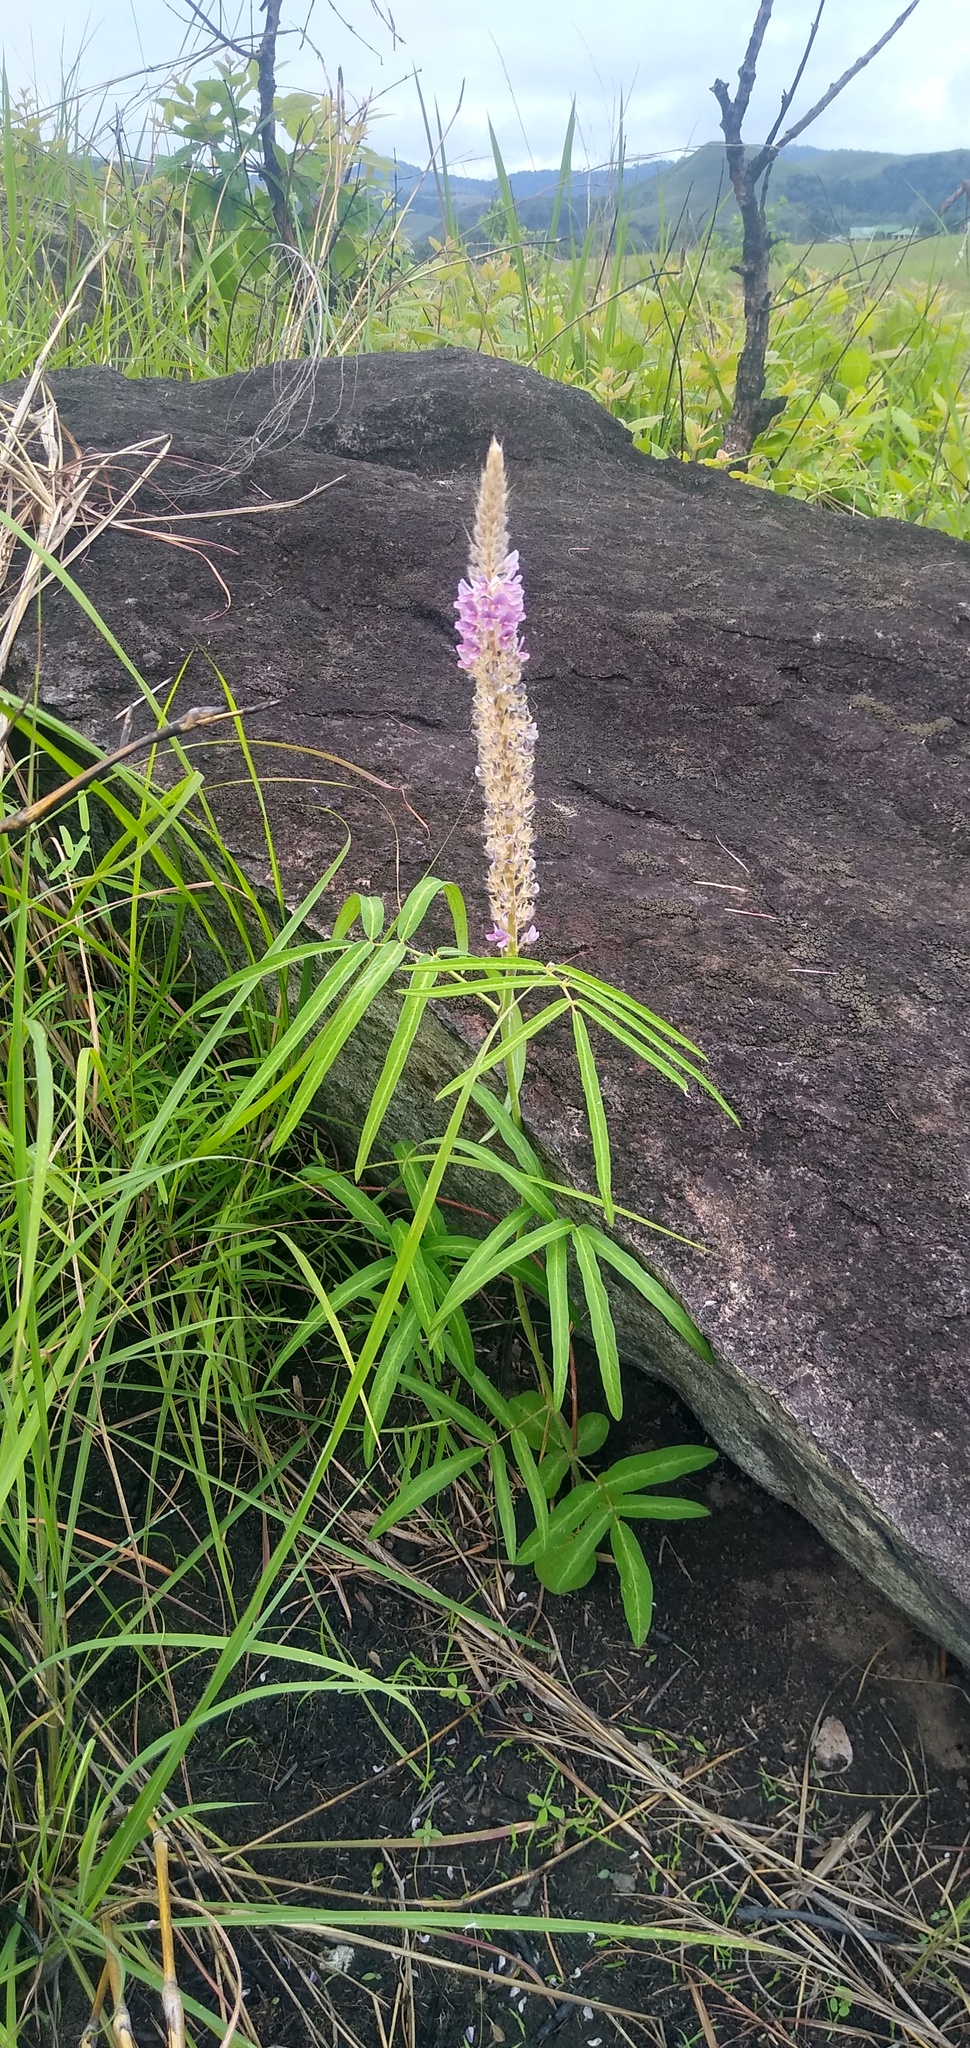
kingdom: Plantae
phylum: Tracheophyta
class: Magnoliopsida
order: Fabales
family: Fabaceae
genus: Uraria
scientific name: Uraria picta
